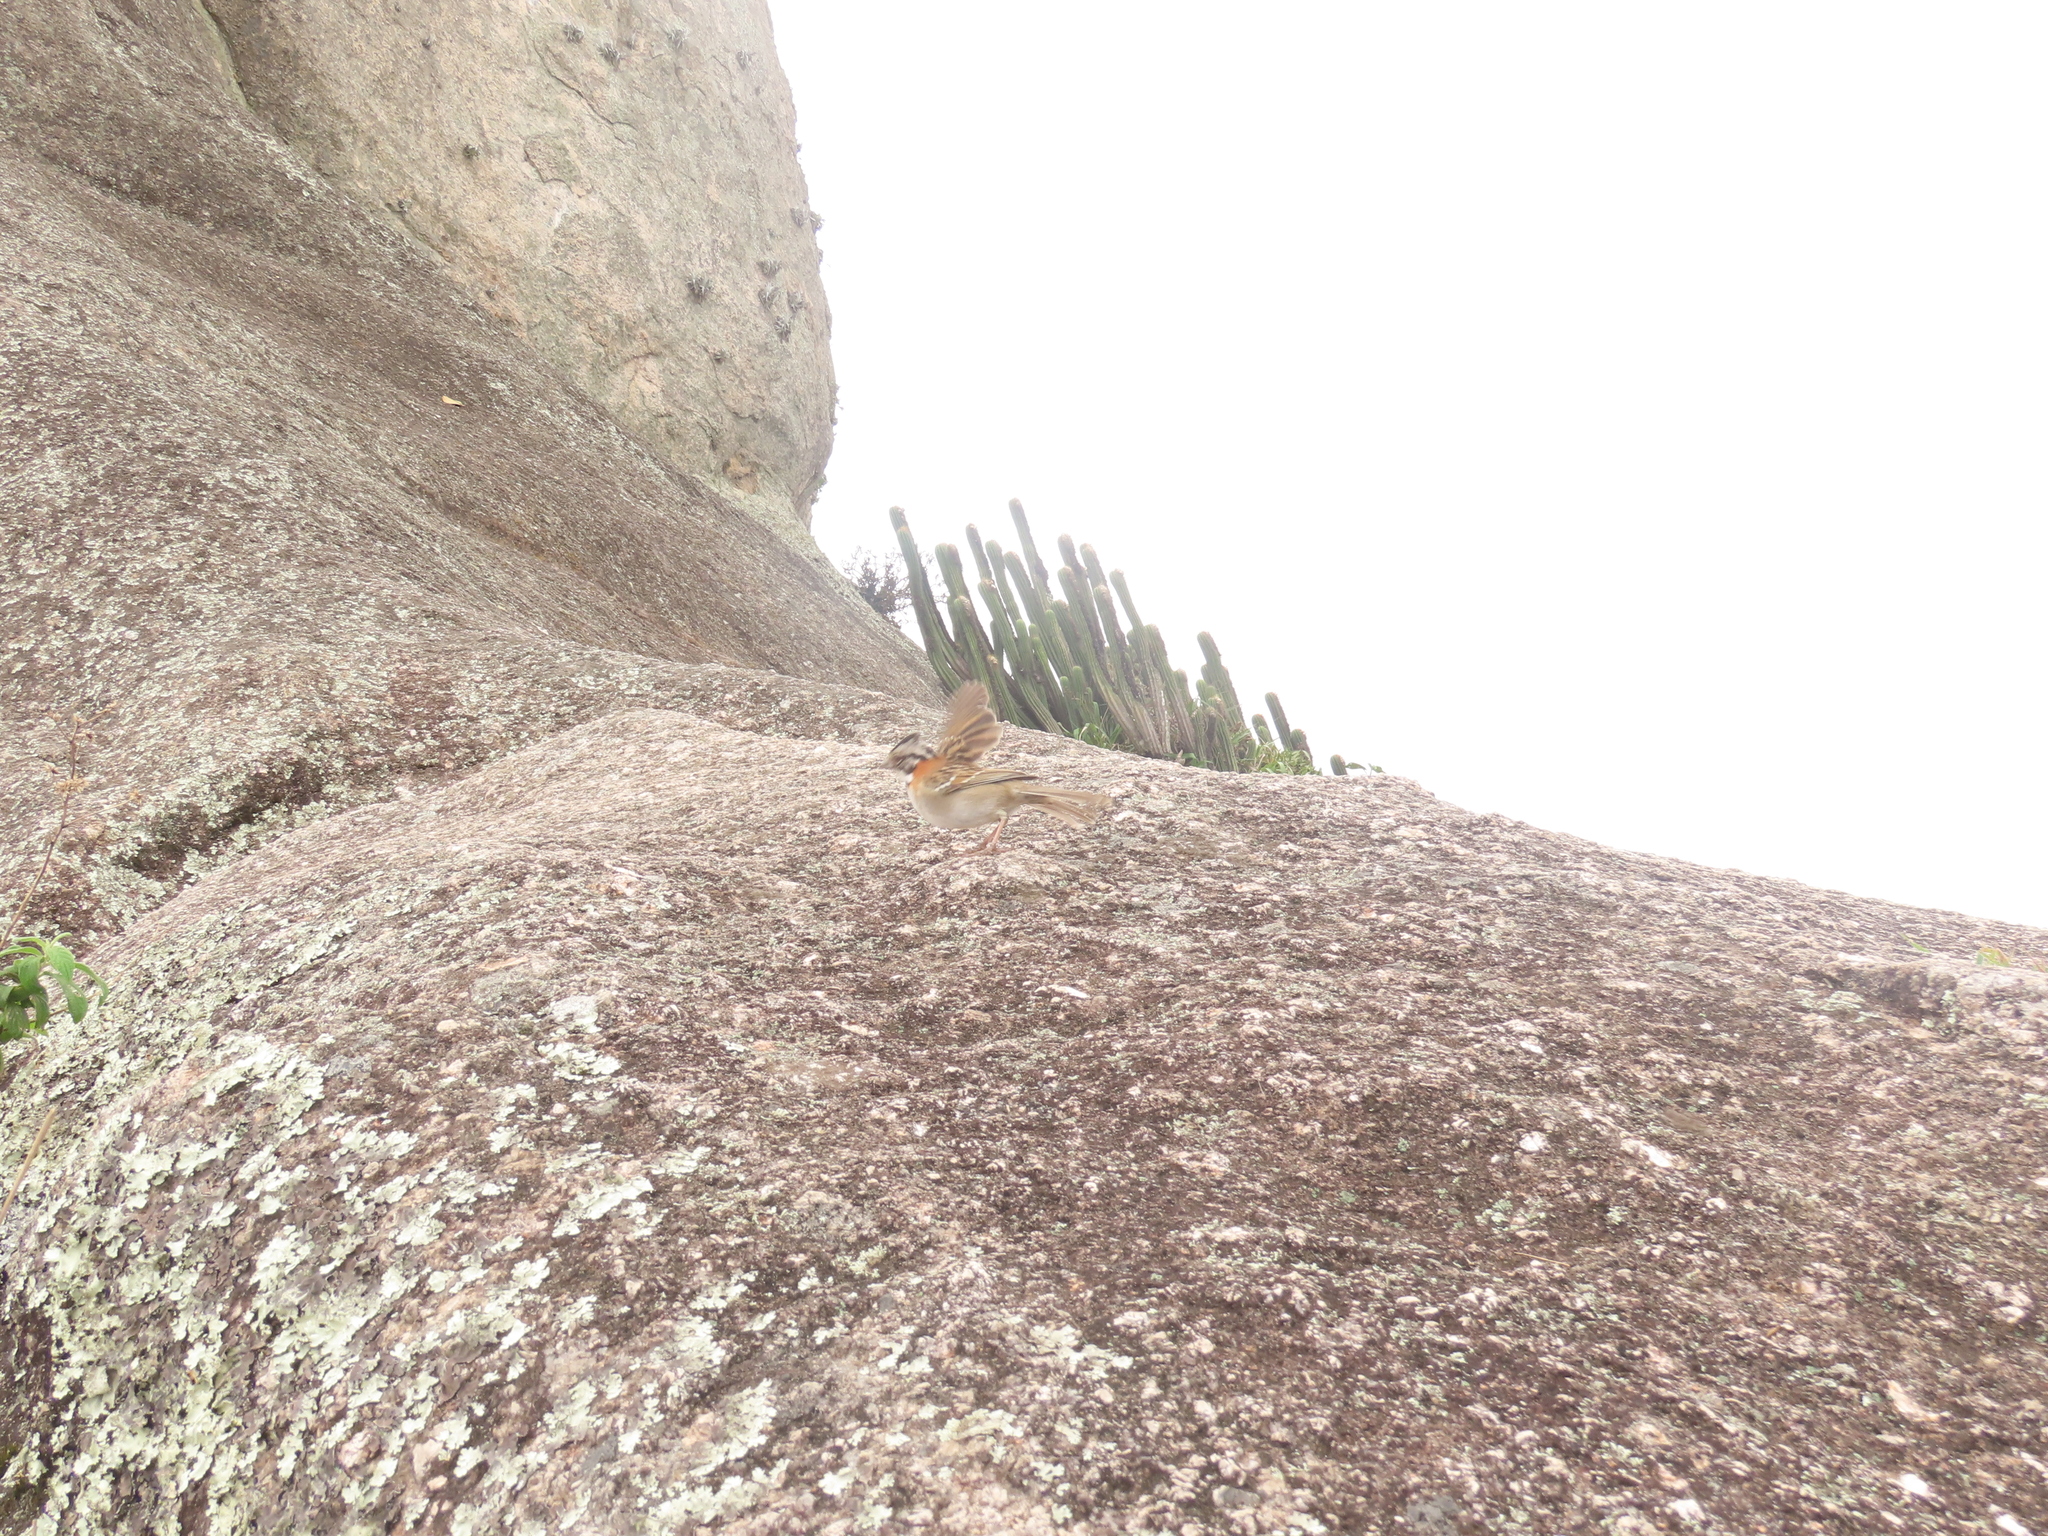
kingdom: Animalia
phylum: Chordata
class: Aves
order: Passeriformes
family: Passerellidae
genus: Zonotrichia
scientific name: Zonotrichia capensis
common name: Rufous-collared sparrow
